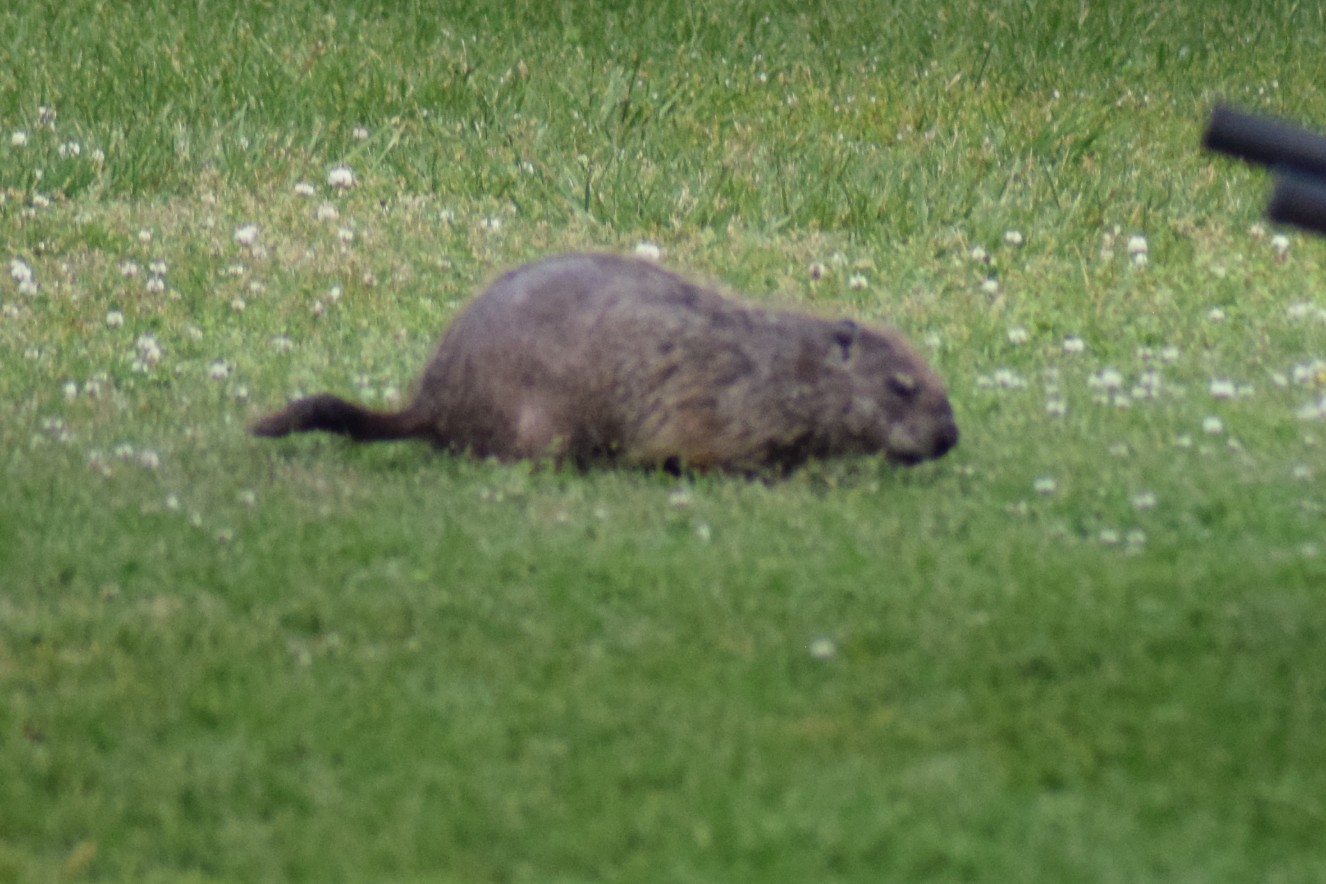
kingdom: Animalia
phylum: Chordata
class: Mammalia
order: Rodentia
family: Sciuridae
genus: Marmota
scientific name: Marmota monax
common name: Groundhog
